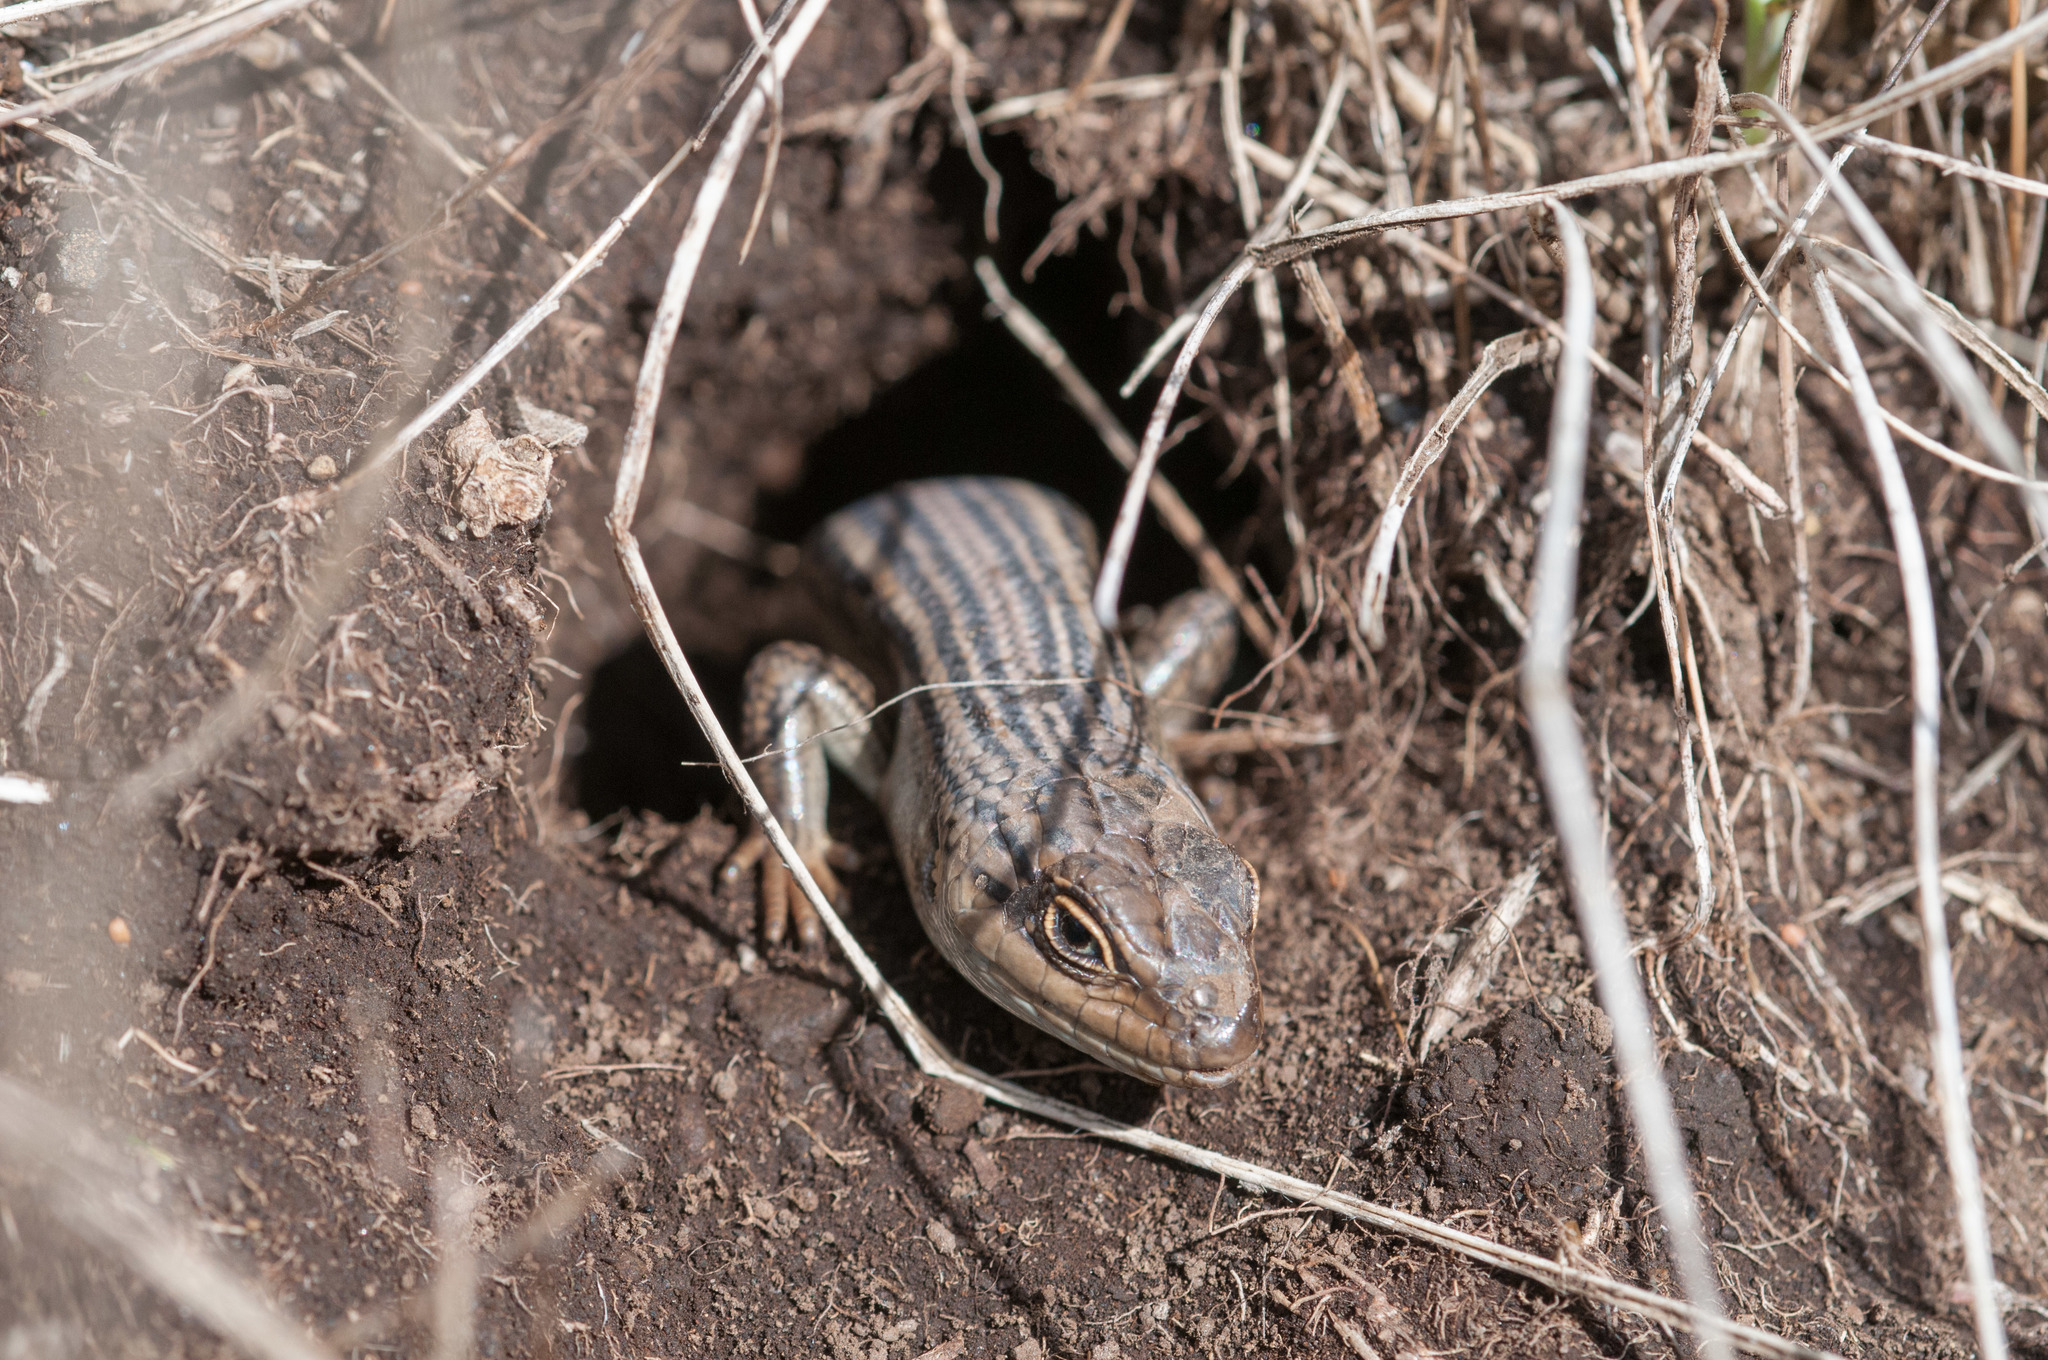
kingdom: Animalia
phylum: Chordata
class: Squamata
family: Scincidae
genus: Liopholis
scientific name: Liopholis whitii
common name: White's rock-skink
